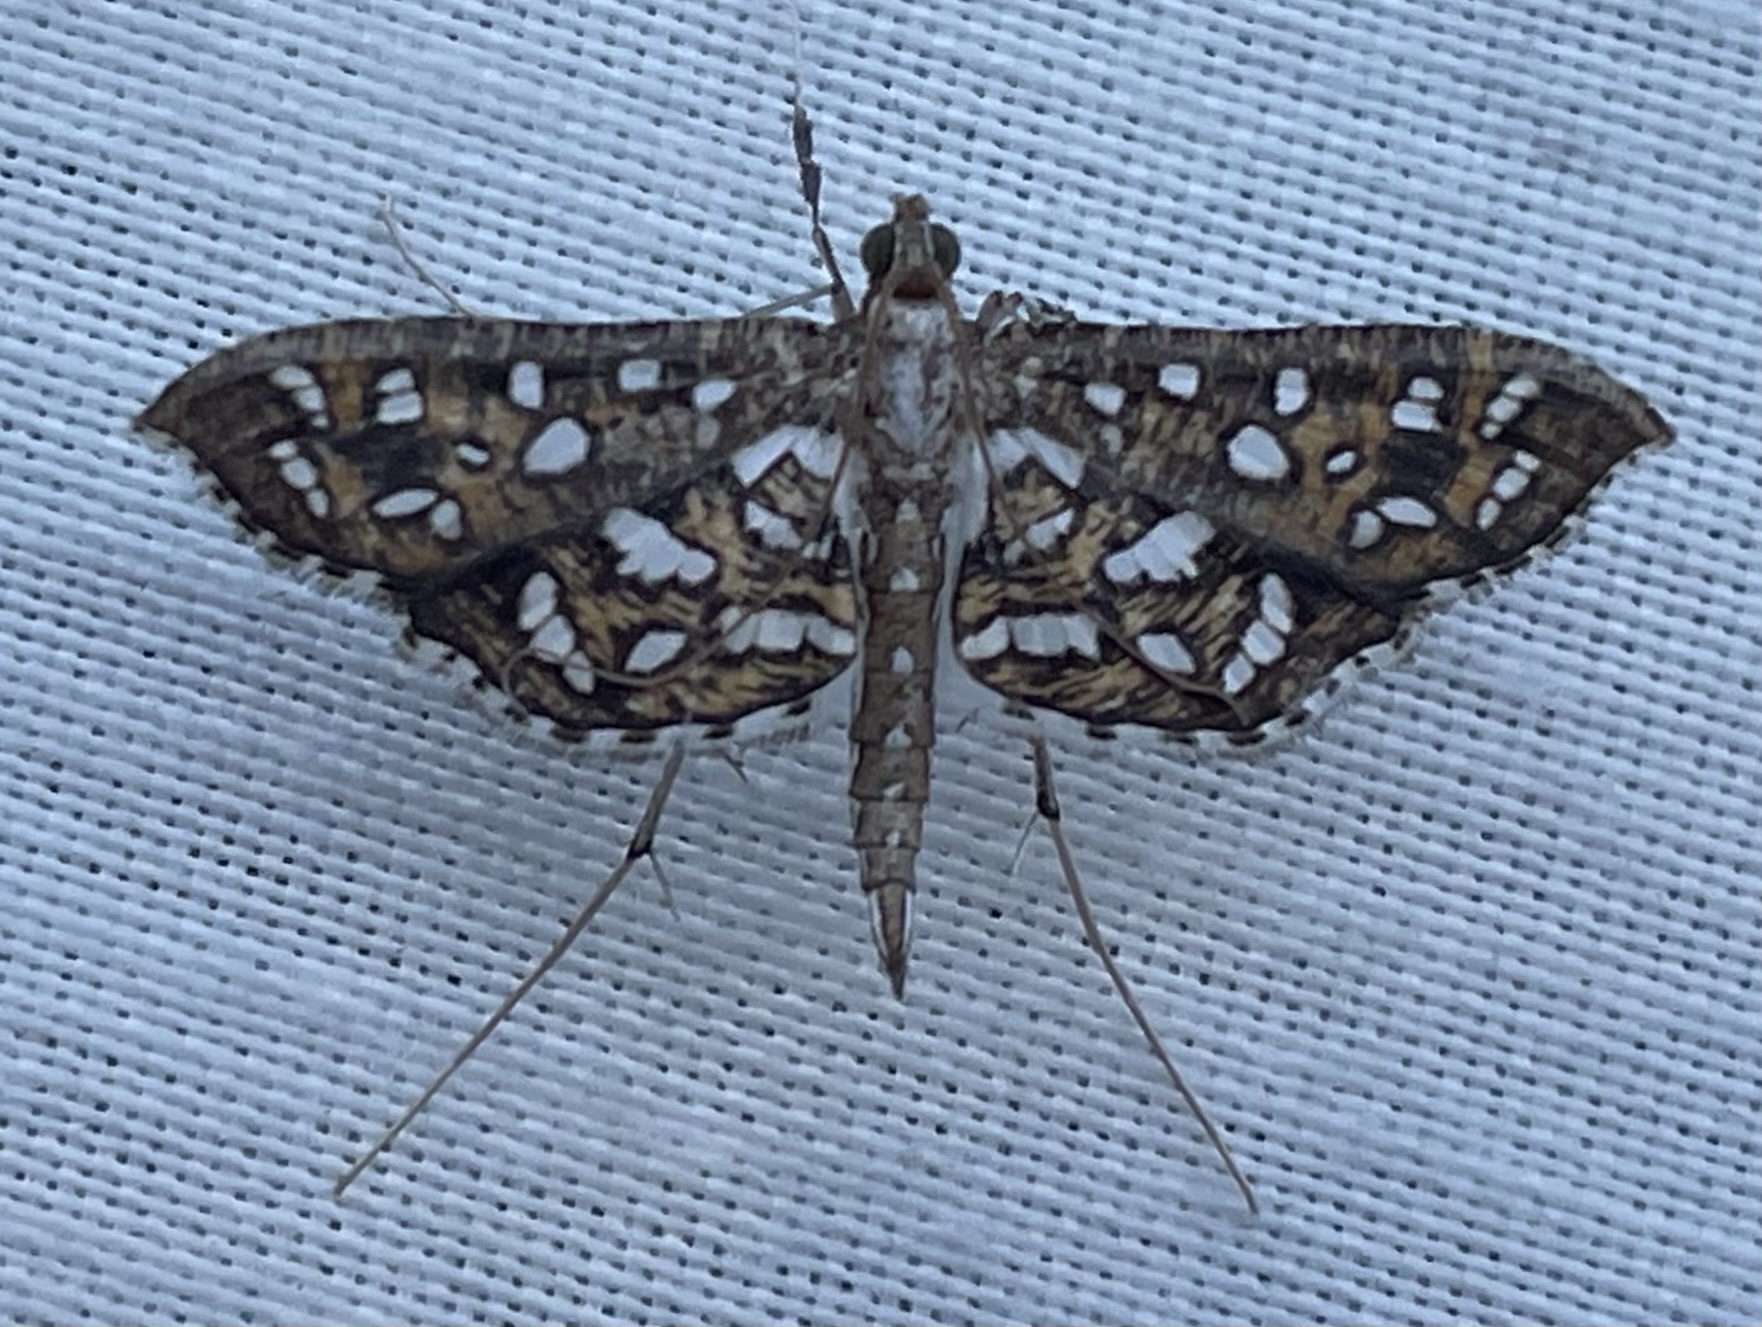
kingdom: Animalia
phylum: Arthropoda
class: Insecta
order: Lepidoptera
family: Crambidae
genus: Nausinoe
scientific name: Nausinoe geometralis
